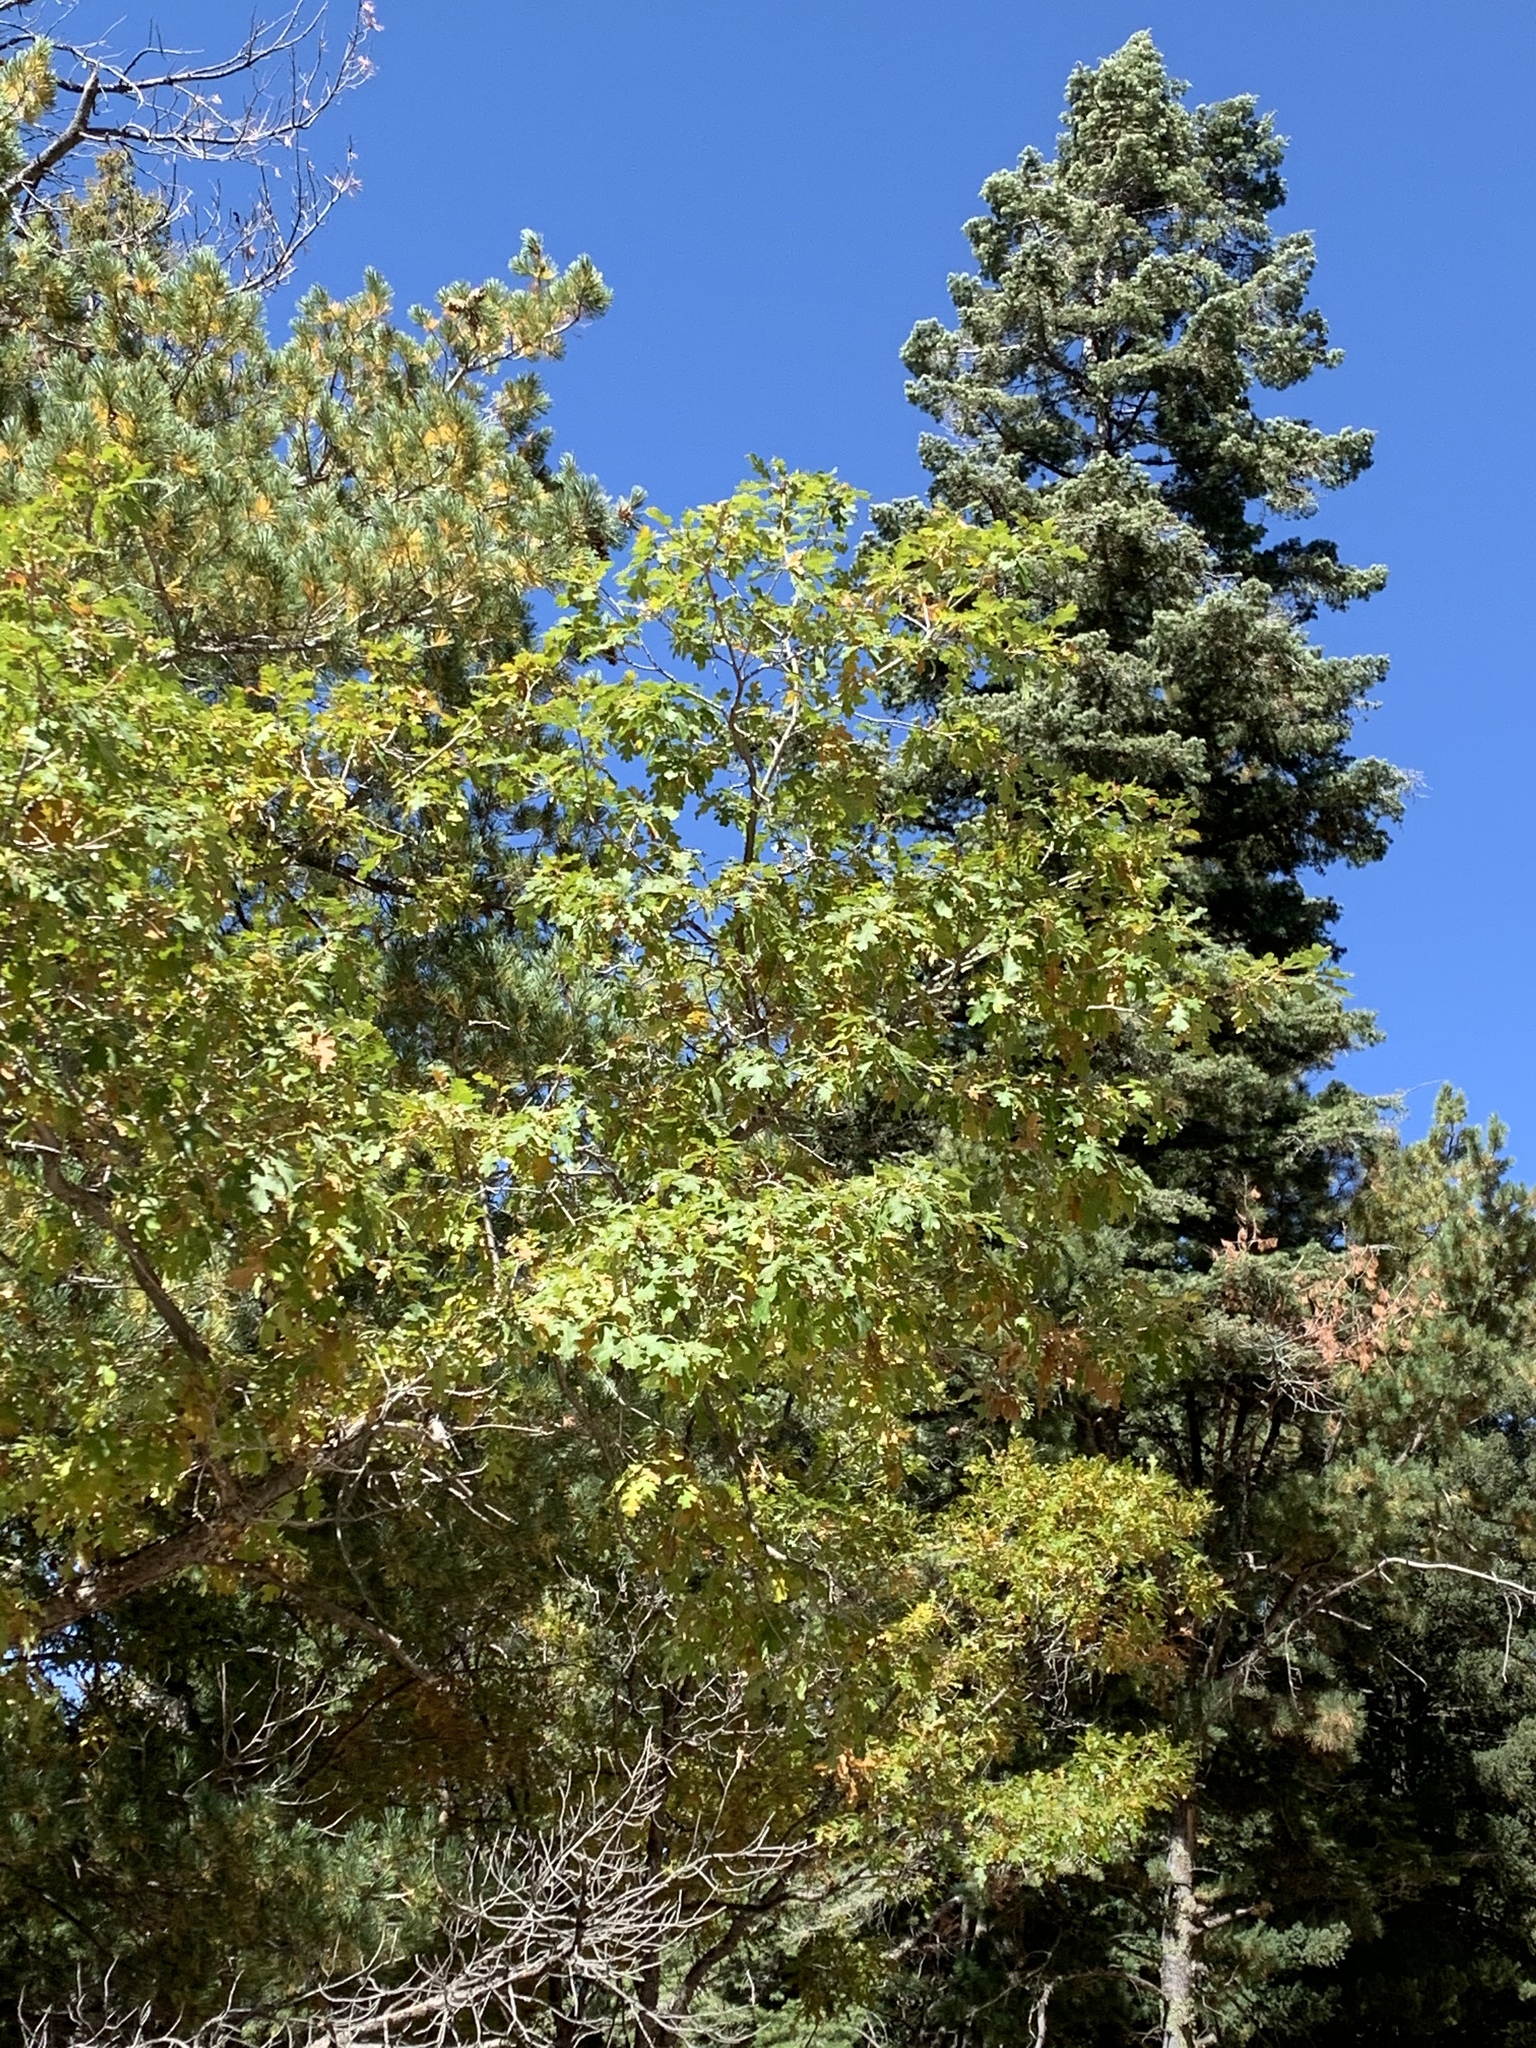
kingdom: Plantae
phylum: Tracheophyta
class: Magnoliopsida
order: Fagales
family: Fagaceae
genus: Quercus
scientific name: Quercus gambelii
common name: Gambel oak
